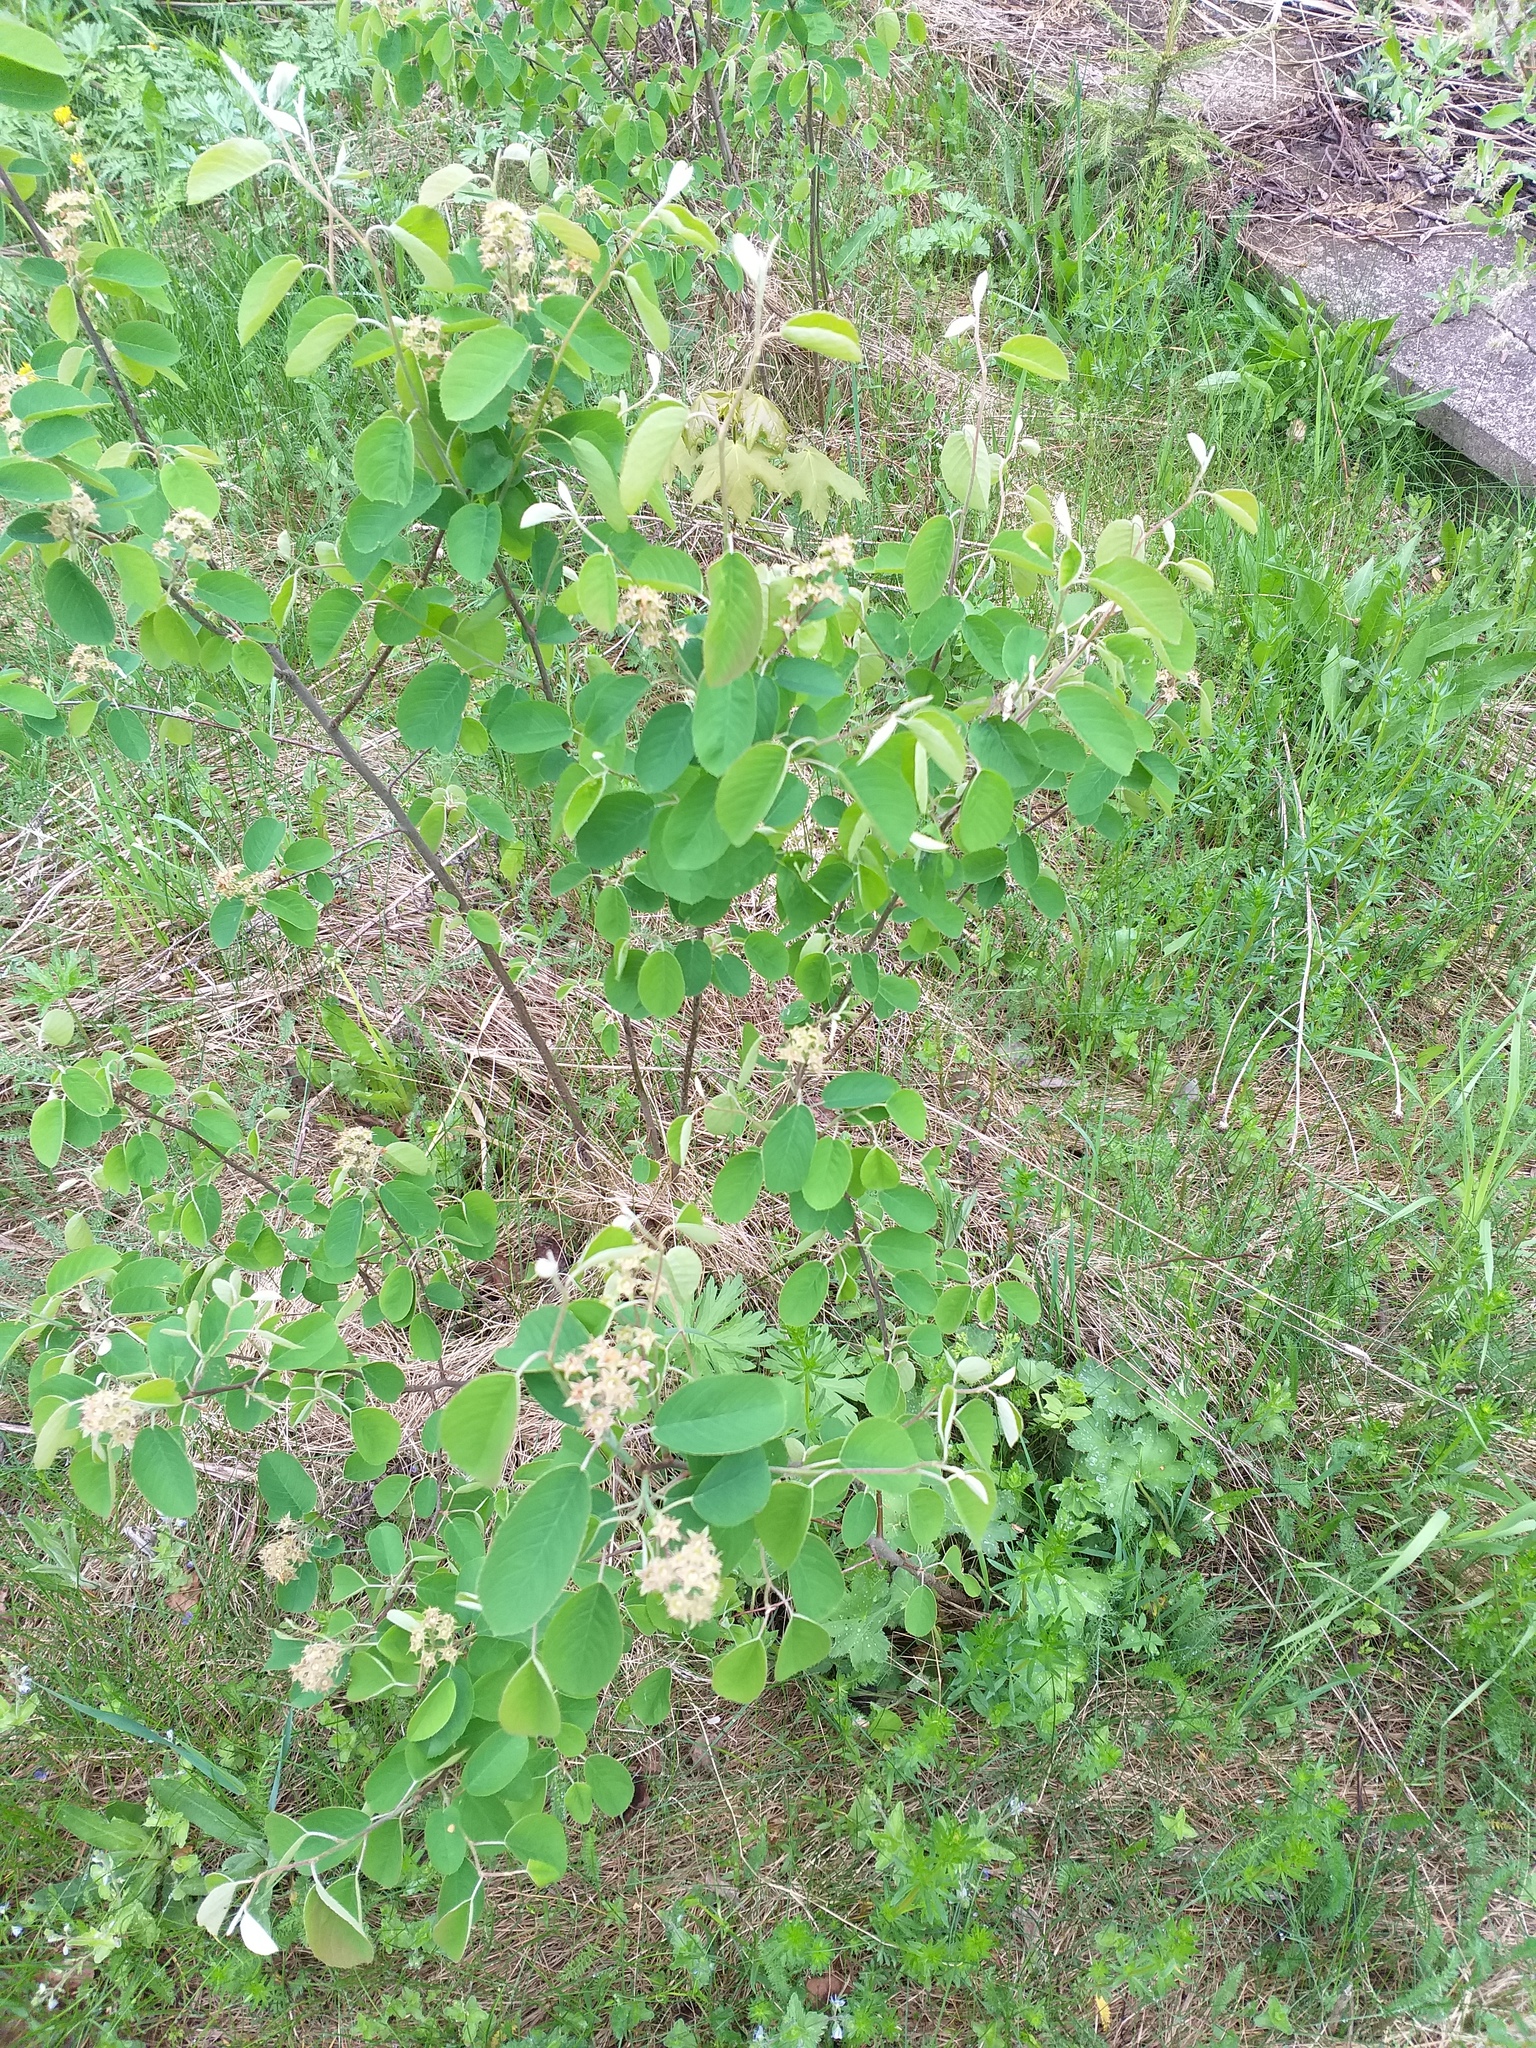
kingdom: Plantae
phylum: Tracheophyta
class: Magnoliopsida
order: Rosales
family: Rosaceae
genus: Amelanchier
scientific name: Amelanchier
